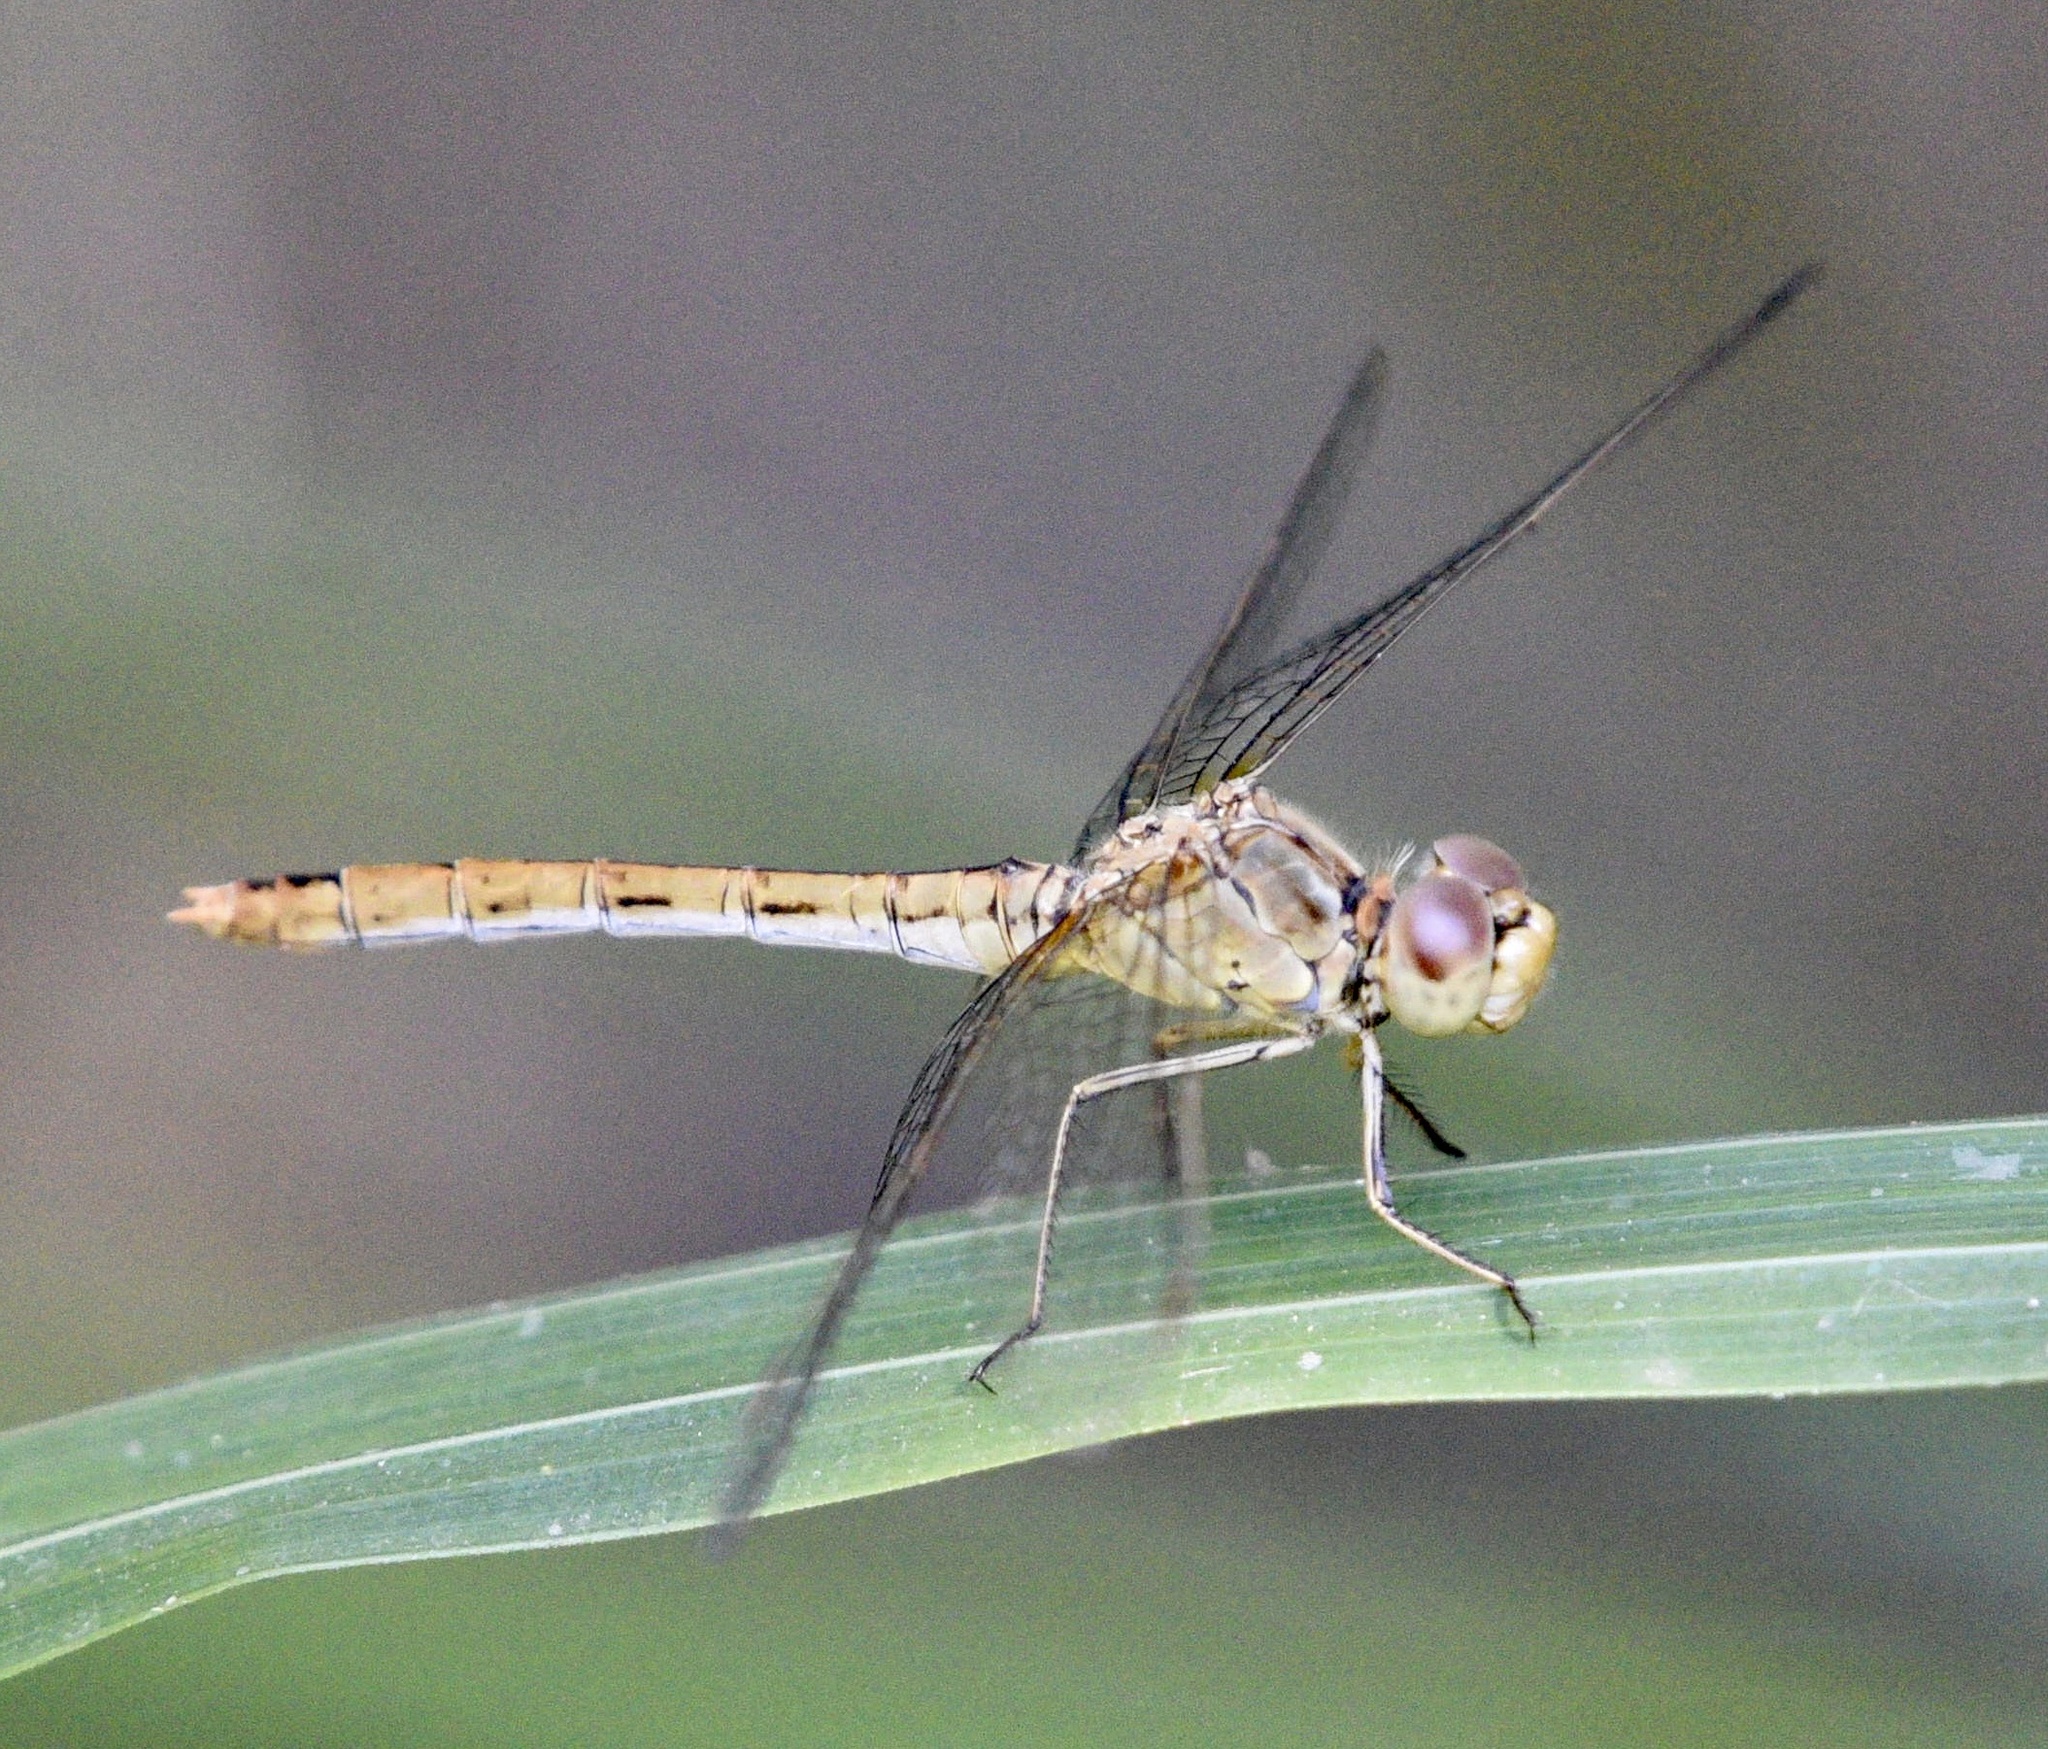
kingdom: Animalia
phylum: Arthropoda
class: Insecta
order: Odonata
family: Libellulidae
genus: Sympetrum
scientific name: Sympetrum meridionale
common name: Southern darter
